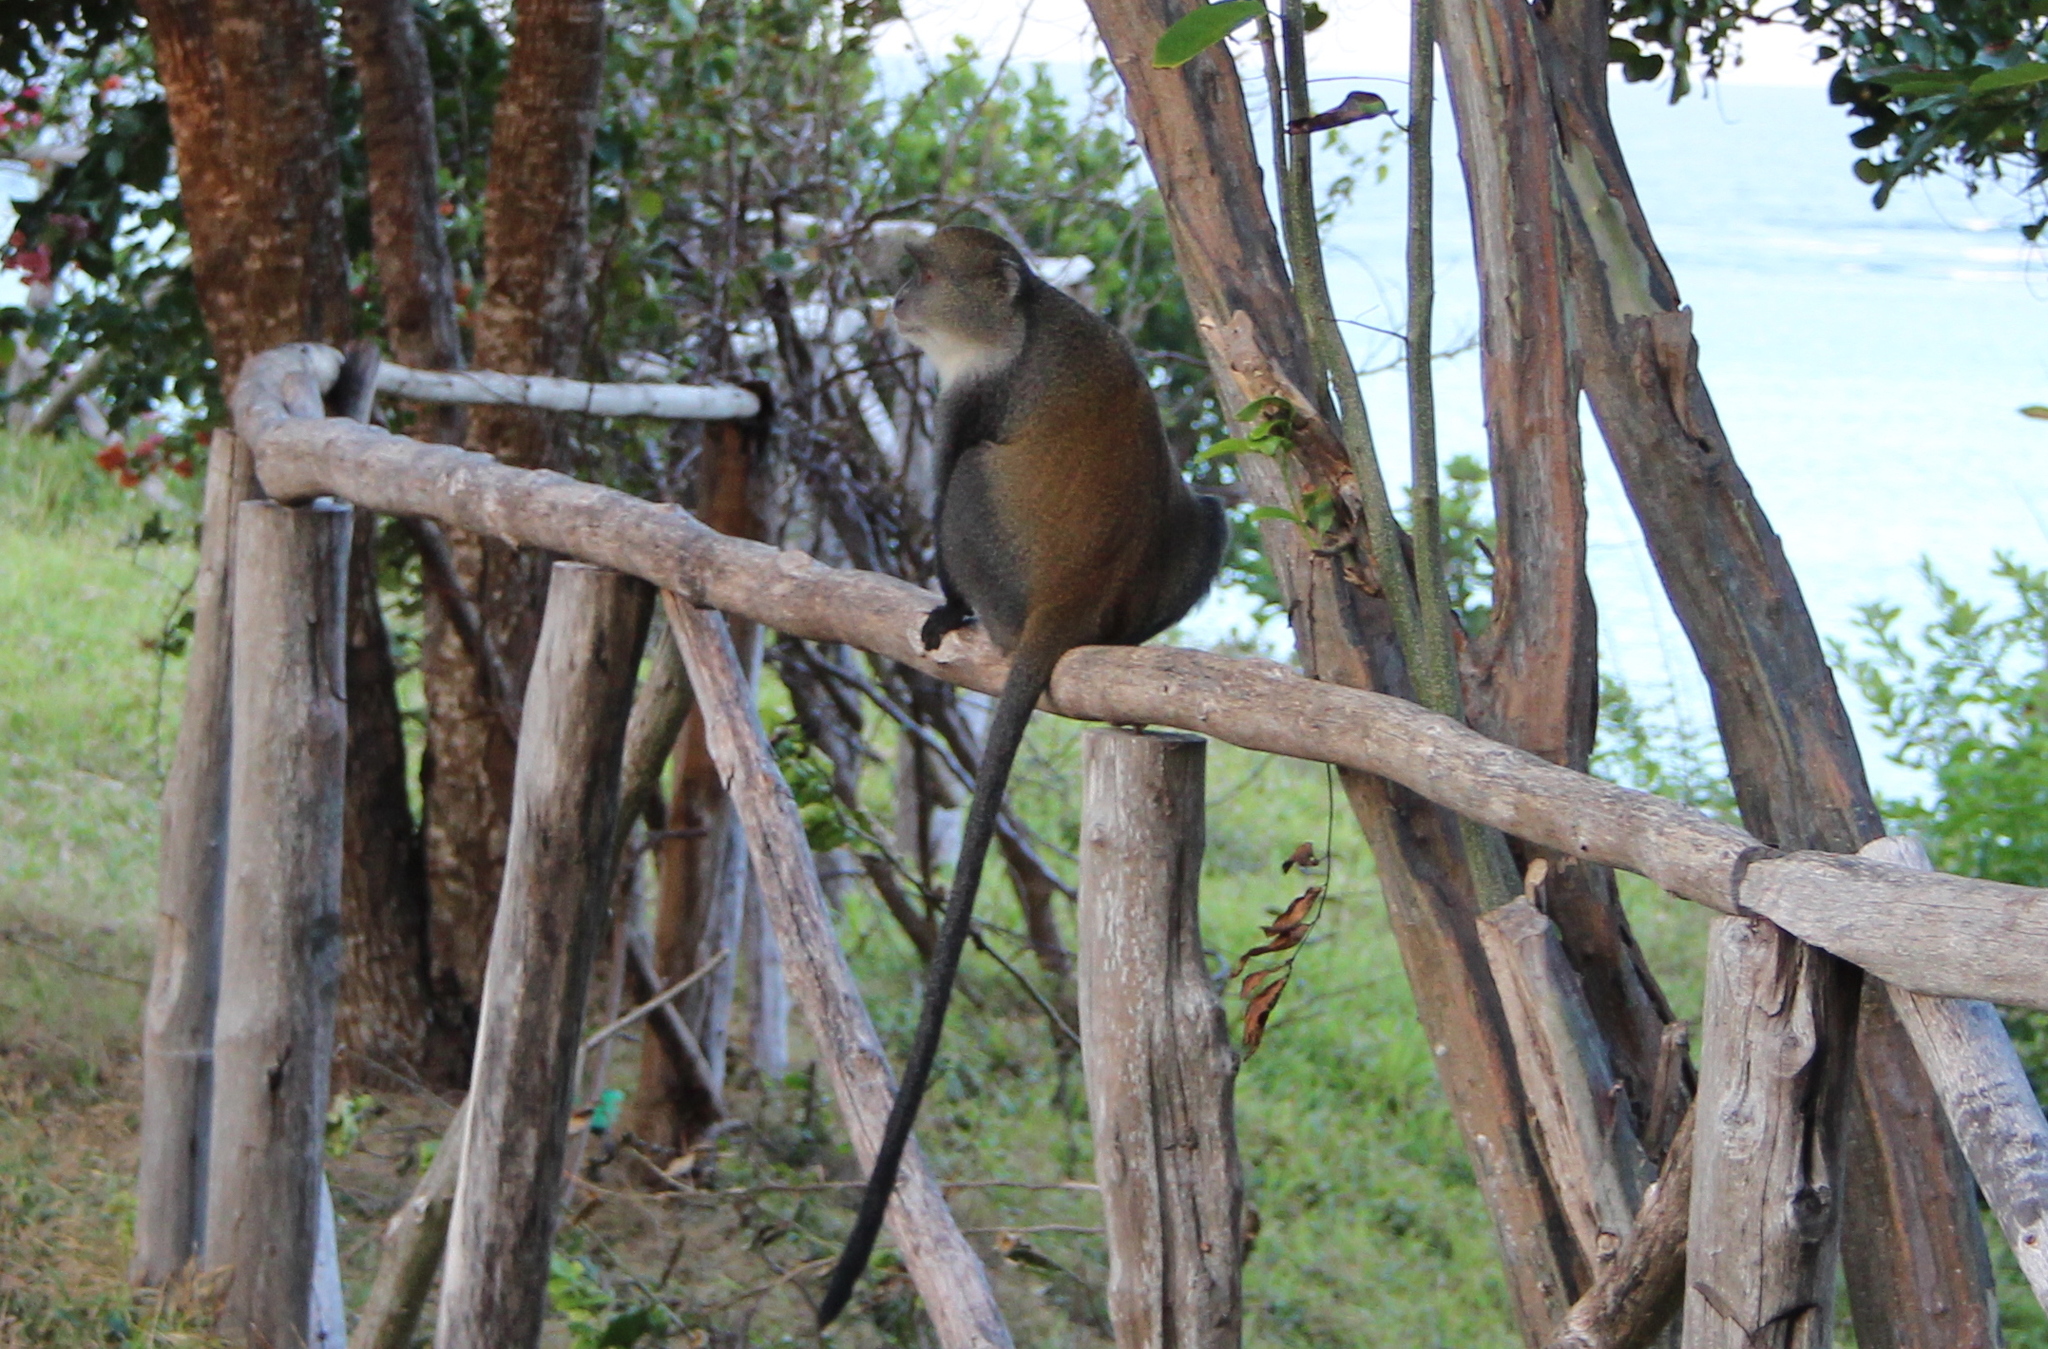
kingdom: Animalia
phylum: Chordata
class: Mammalia
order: Primates
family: Cercopithecidae
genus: Cercopithecus
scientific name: Cercopithecus mitis
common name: Blue monkey
